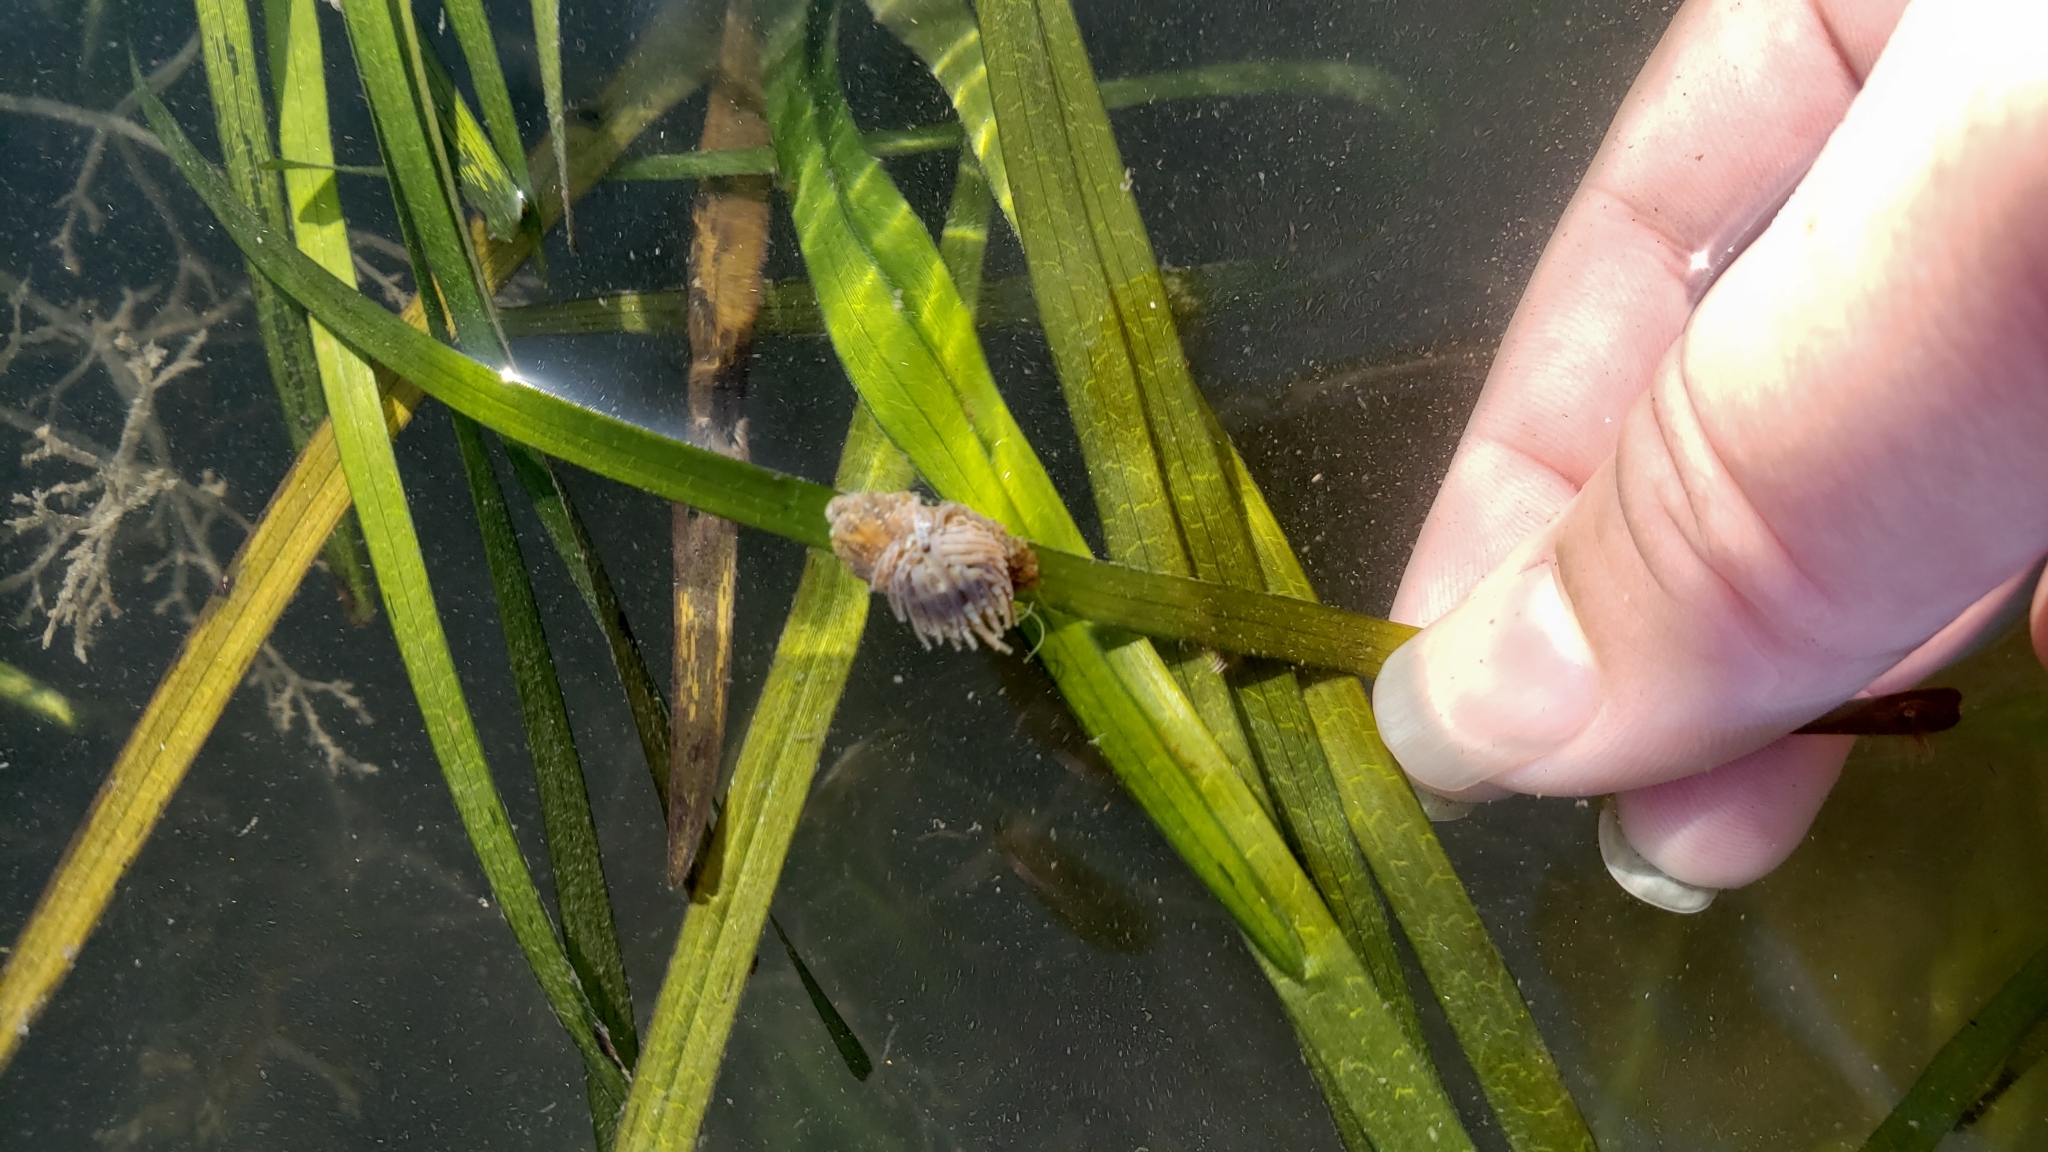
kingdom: Animalia
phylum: Cnidaria
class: Anthozoa
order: Actiniaria
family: Aiptasiidae
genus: Exaiptasia
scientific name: Exaiptasia diaphana
